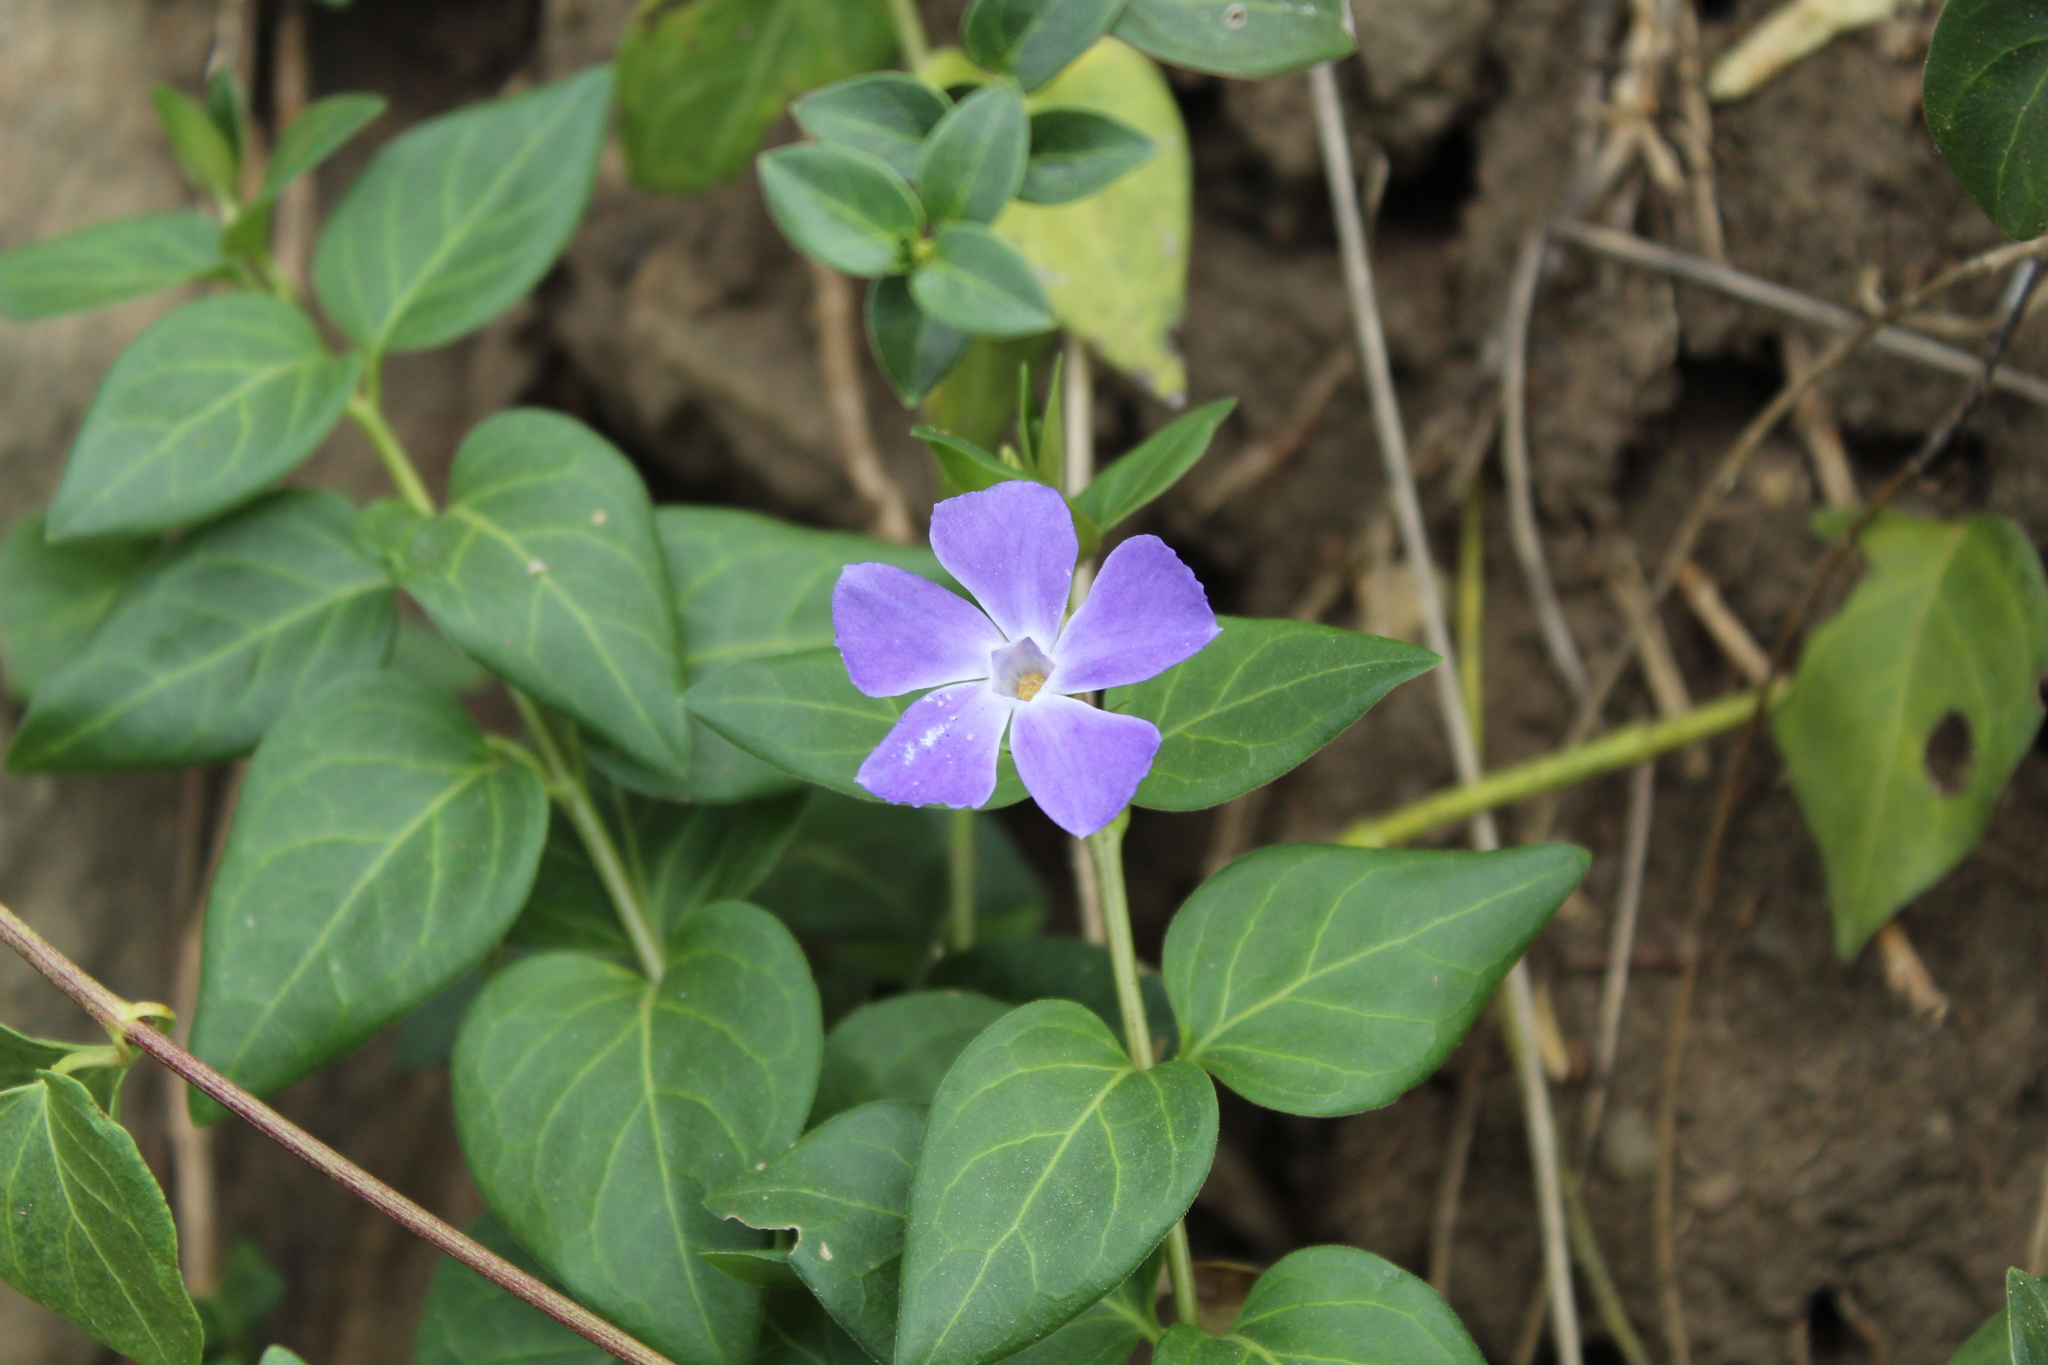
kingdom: Plantae
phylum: Tracheophyta
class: Magnoliopsida
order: Gentianales
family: Apocynaceae
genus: Vinca
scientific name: Vinca major
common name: Greater periwinkle
